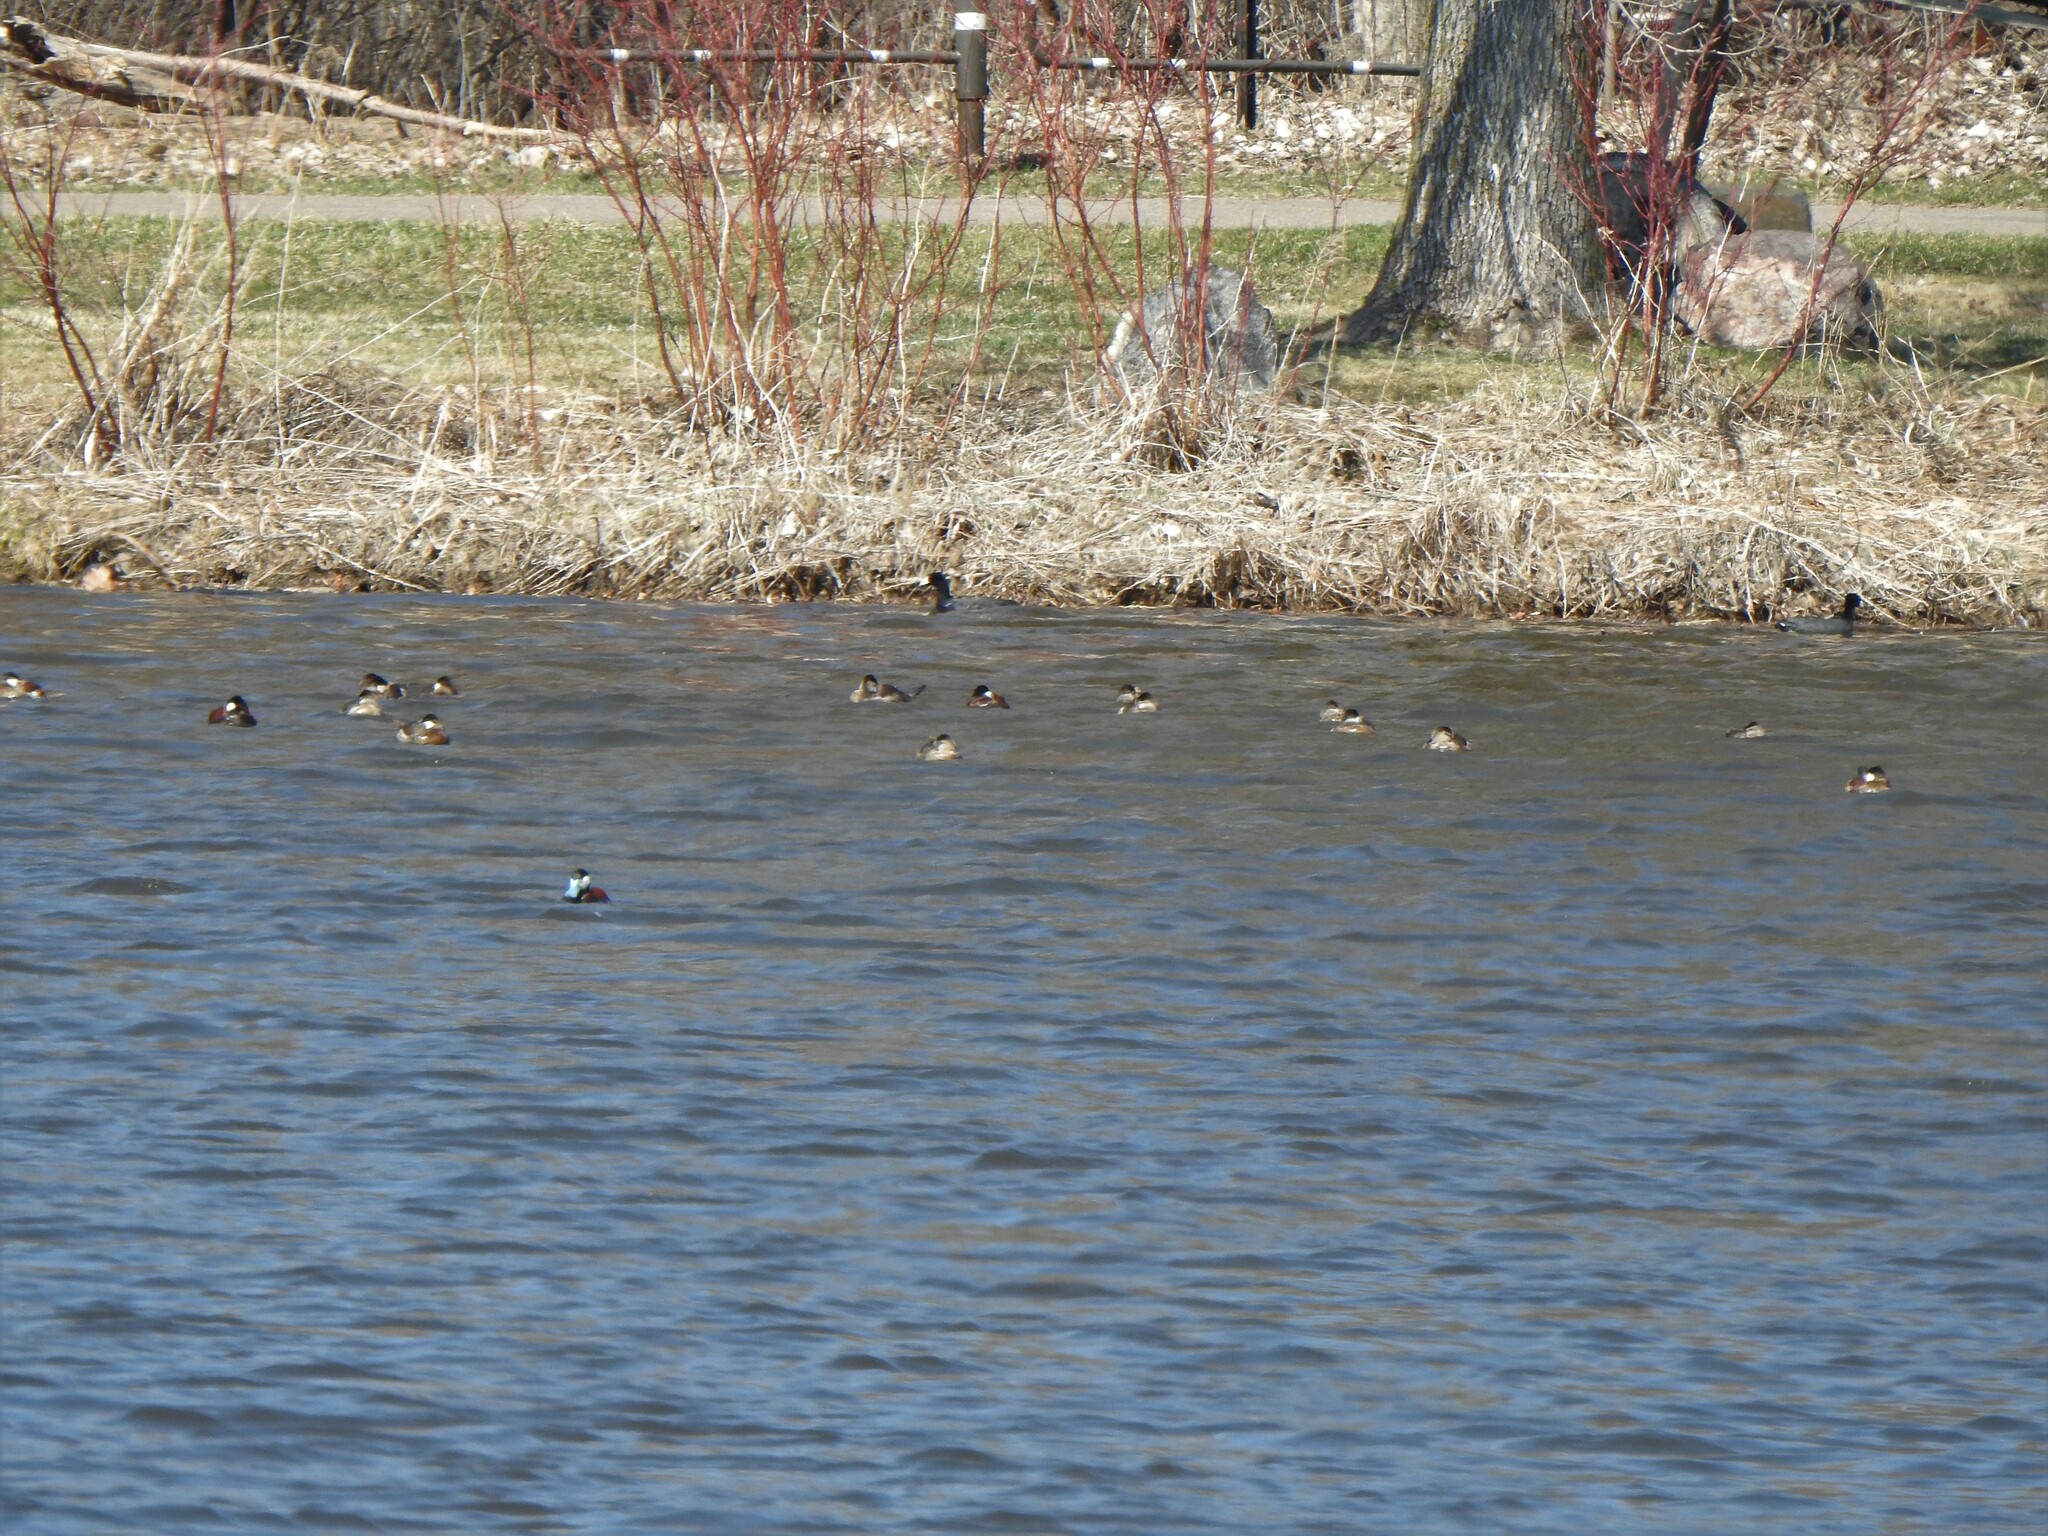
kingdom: Animalia
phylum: Chordata
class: Aves
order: Anseriformes
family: Anatidae
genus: Oxyura
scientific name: Oxyura jamaicensis
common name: Ruddy duck
